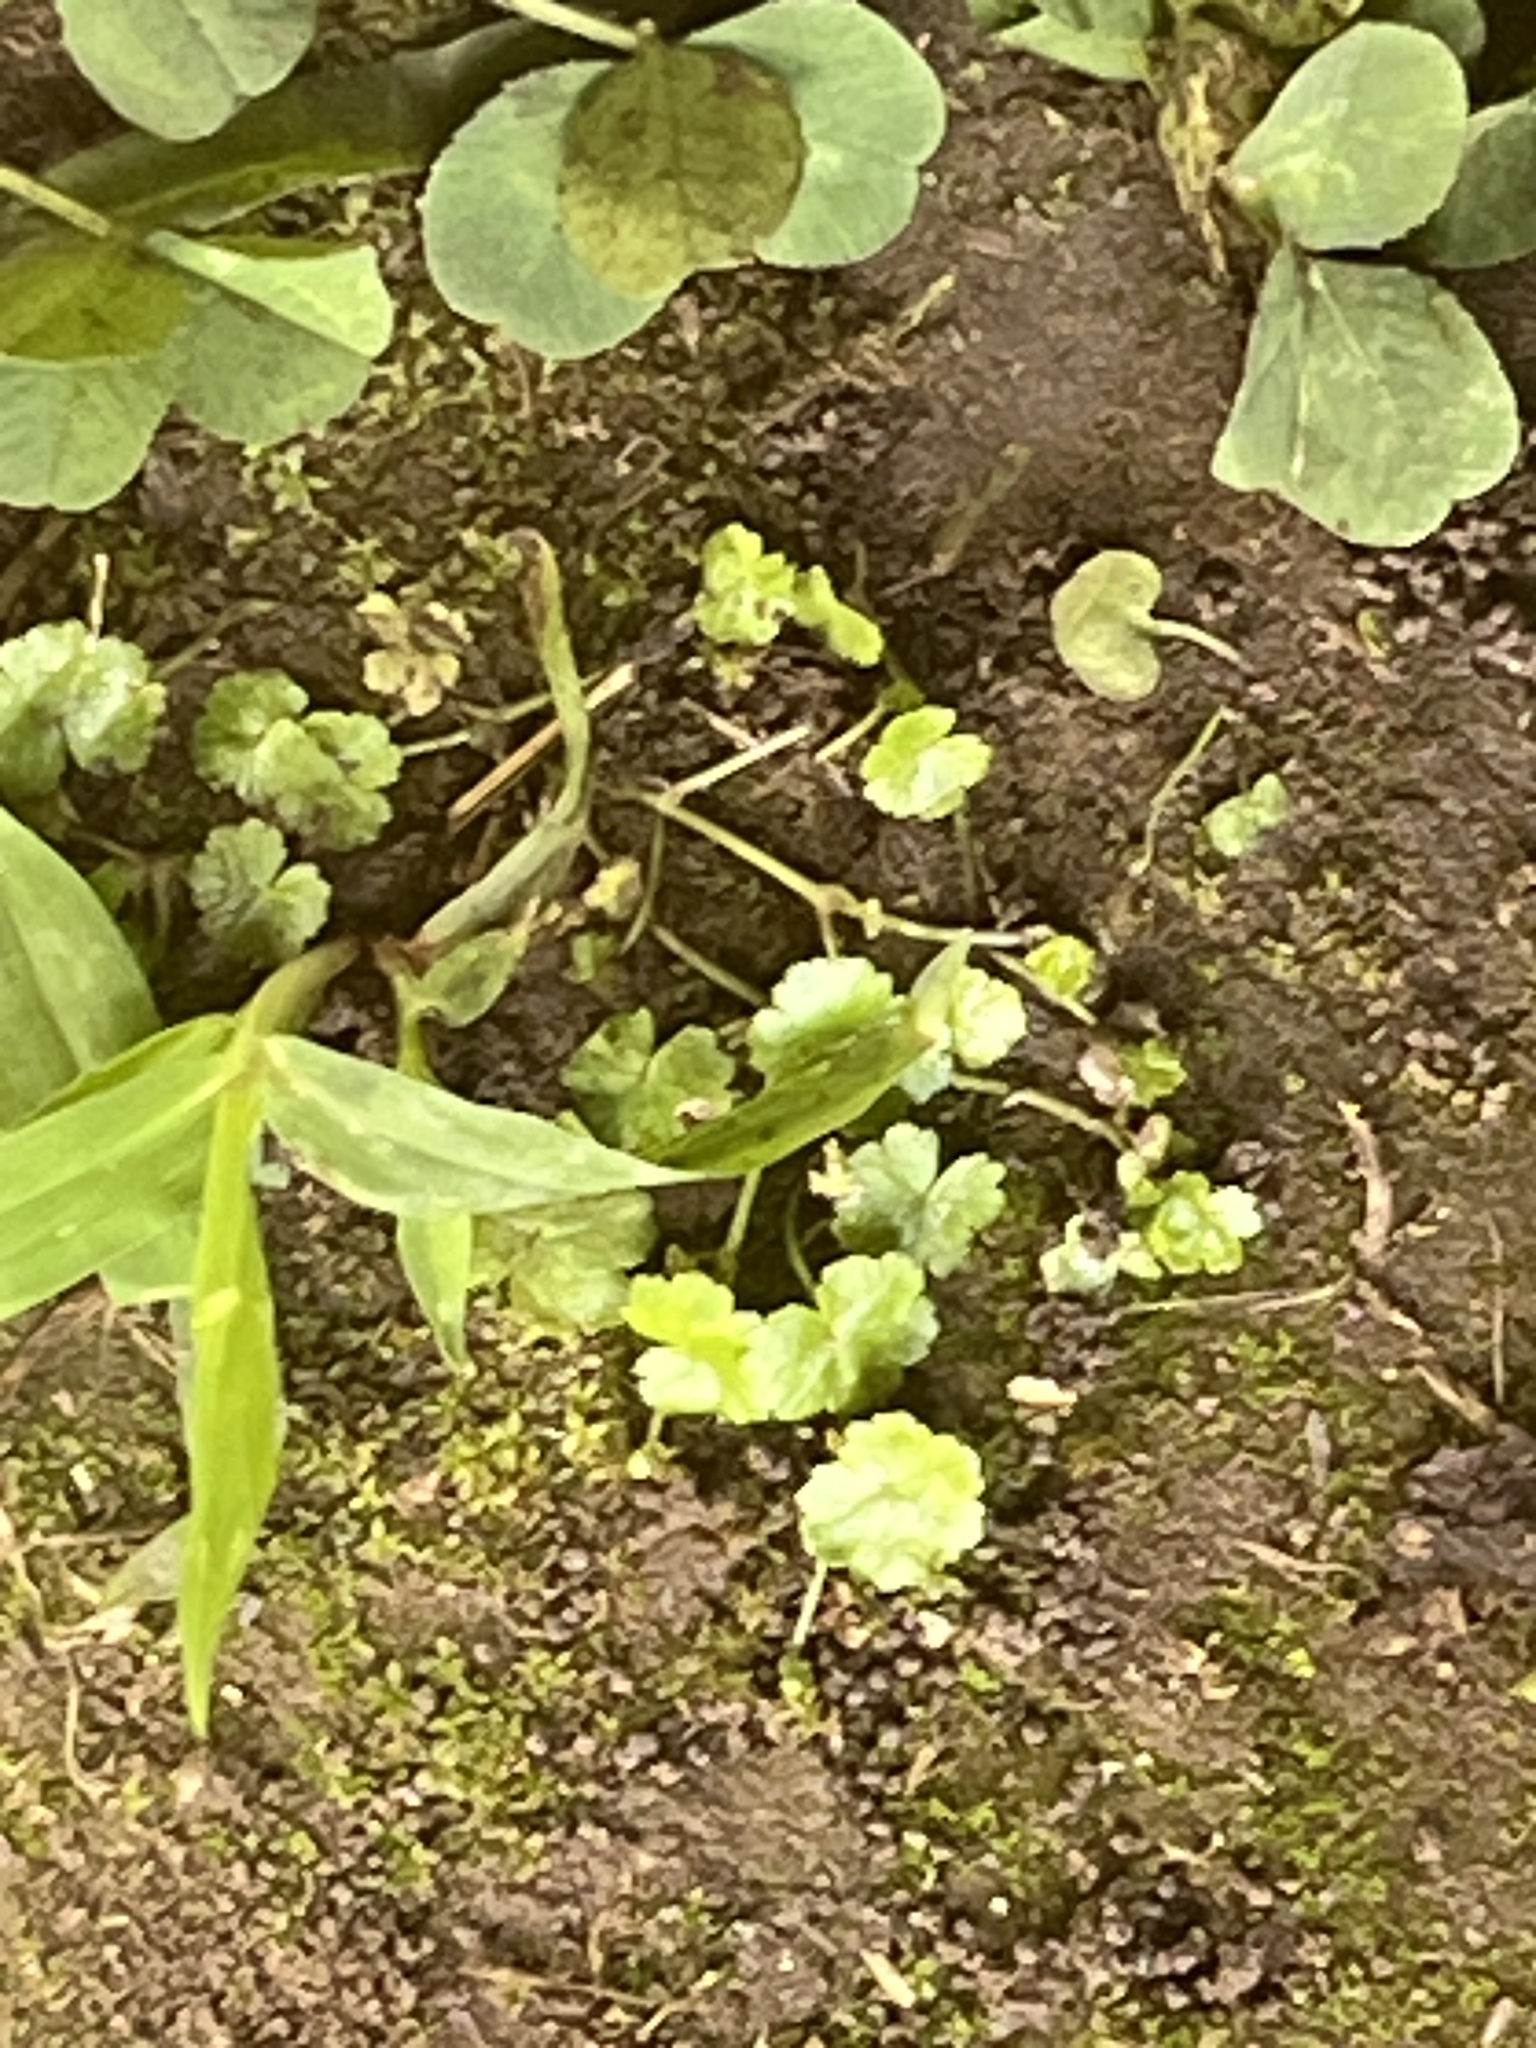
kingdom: Plantae
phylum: Tracheophyta
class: Magnoliopsida
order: Apiales
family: Araliaceae
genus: Hydrocotyle
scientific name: Hydrocotyle sibthorpioides
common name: Lawn marshpennywort
